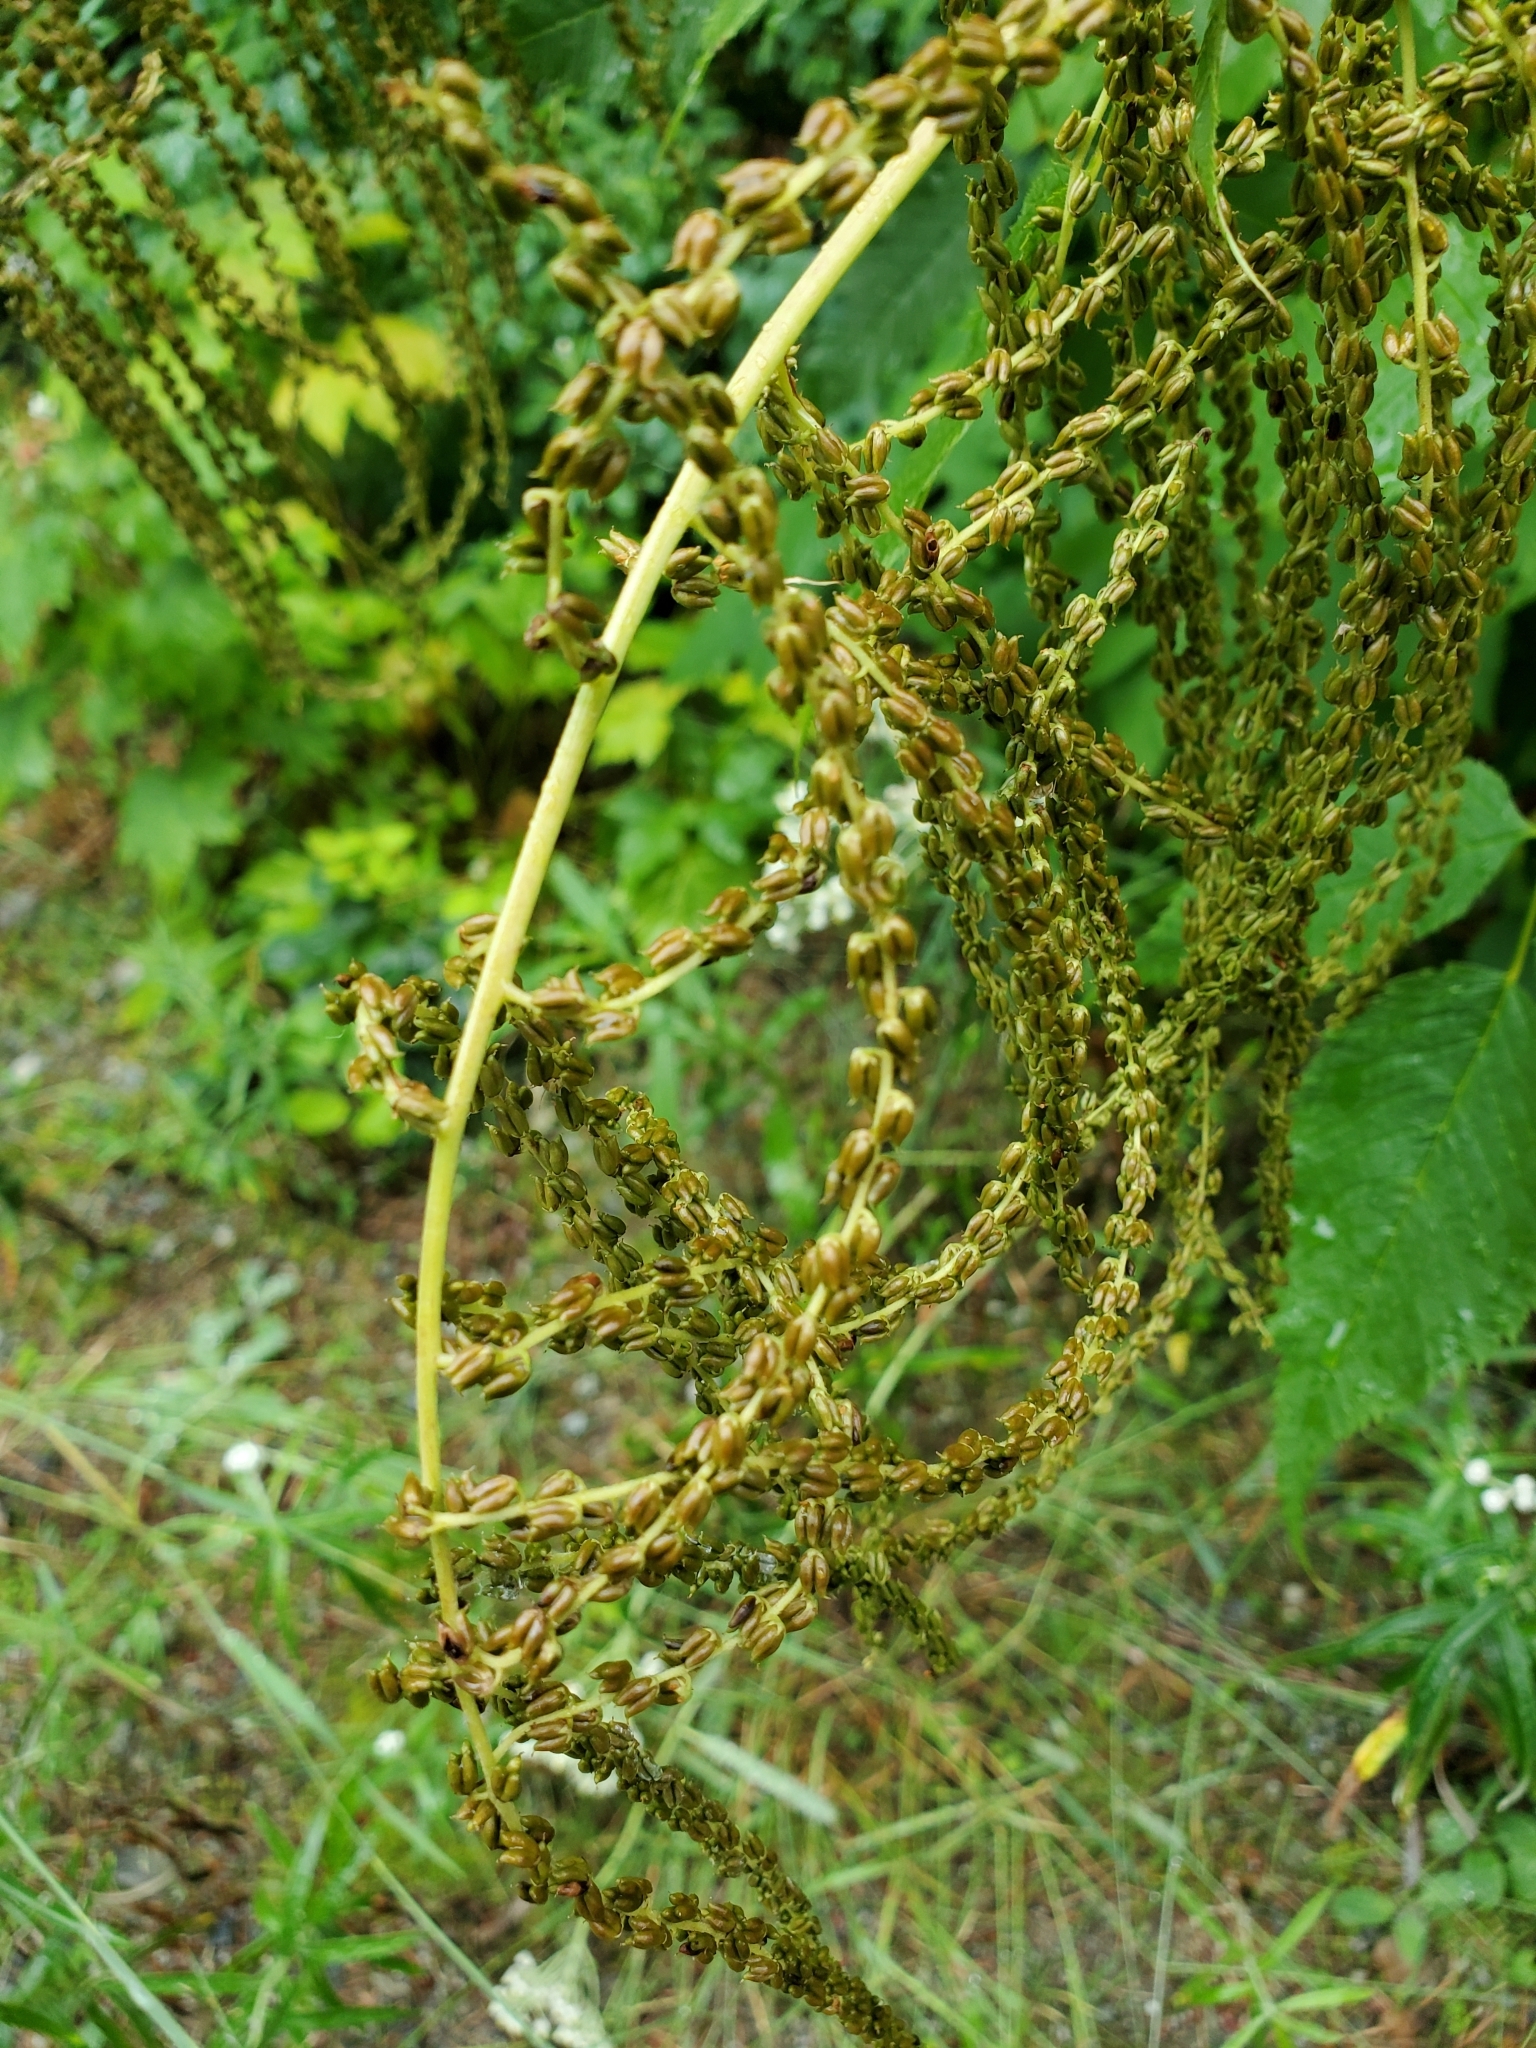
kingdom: Plantae
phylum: Tracheophyta
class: Magnoliopsida
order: Rosales
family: Rosaceae
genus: Aruncus
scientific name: Aruncus dioicus
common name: Buck's-beard
